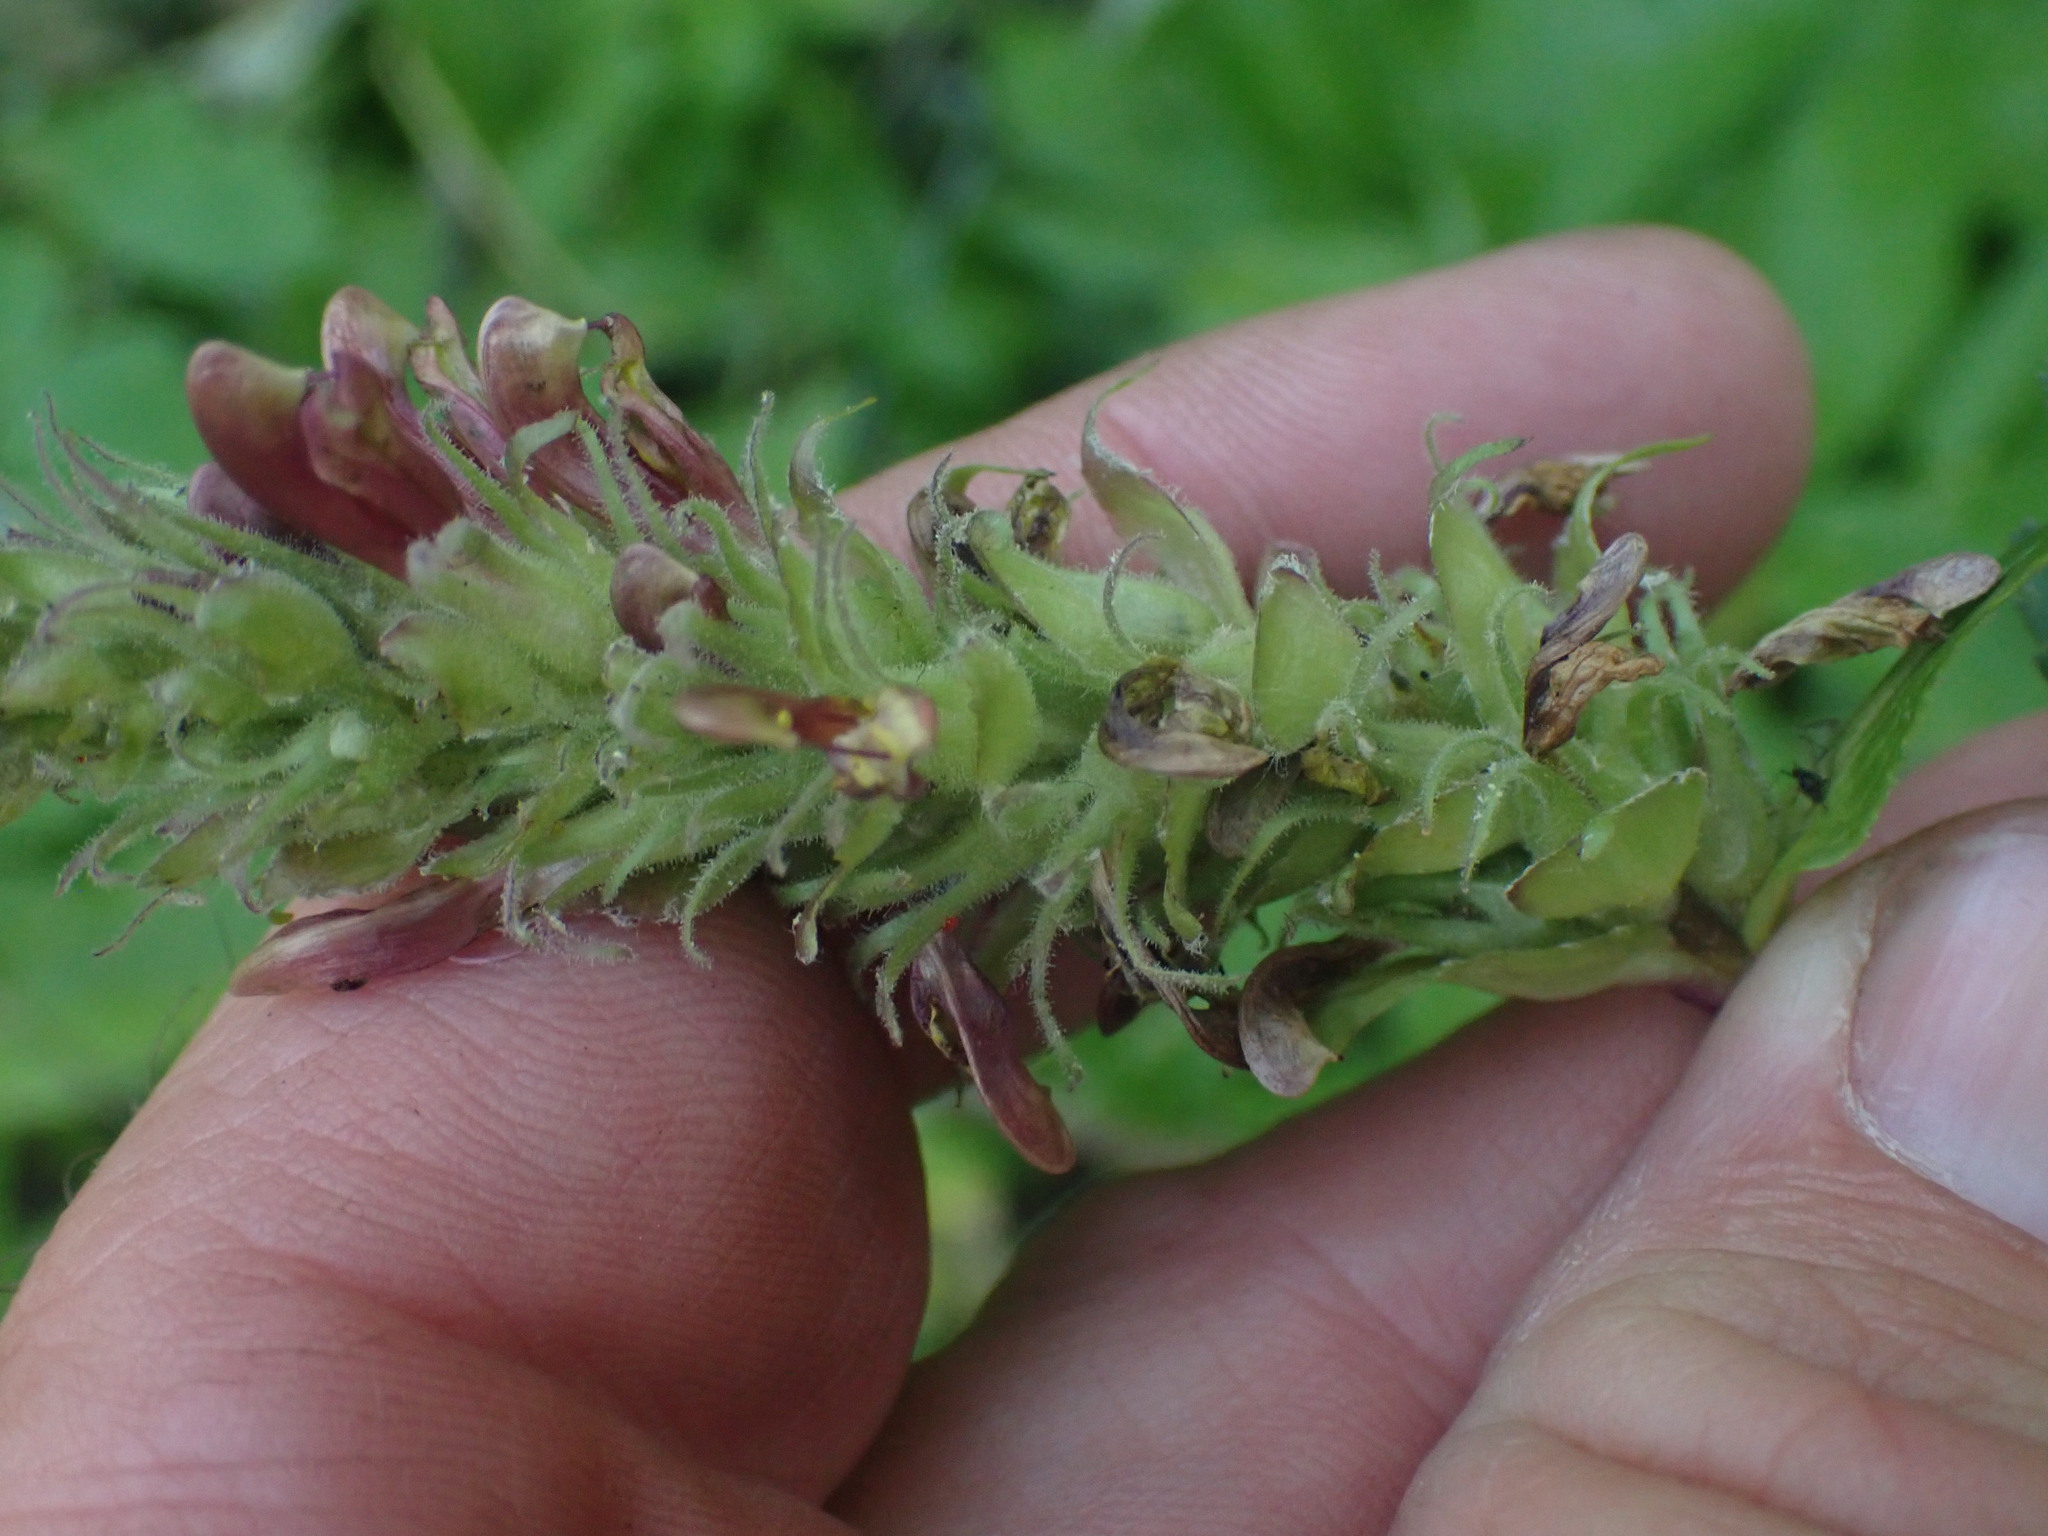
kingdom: Plantae
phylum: Tracheophyta
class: Magnoliopsida
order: Lamiales
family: Orobanchaceae
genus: Pedicularis
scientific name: Pedicularis bracteosa
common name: Bracted lousewort
